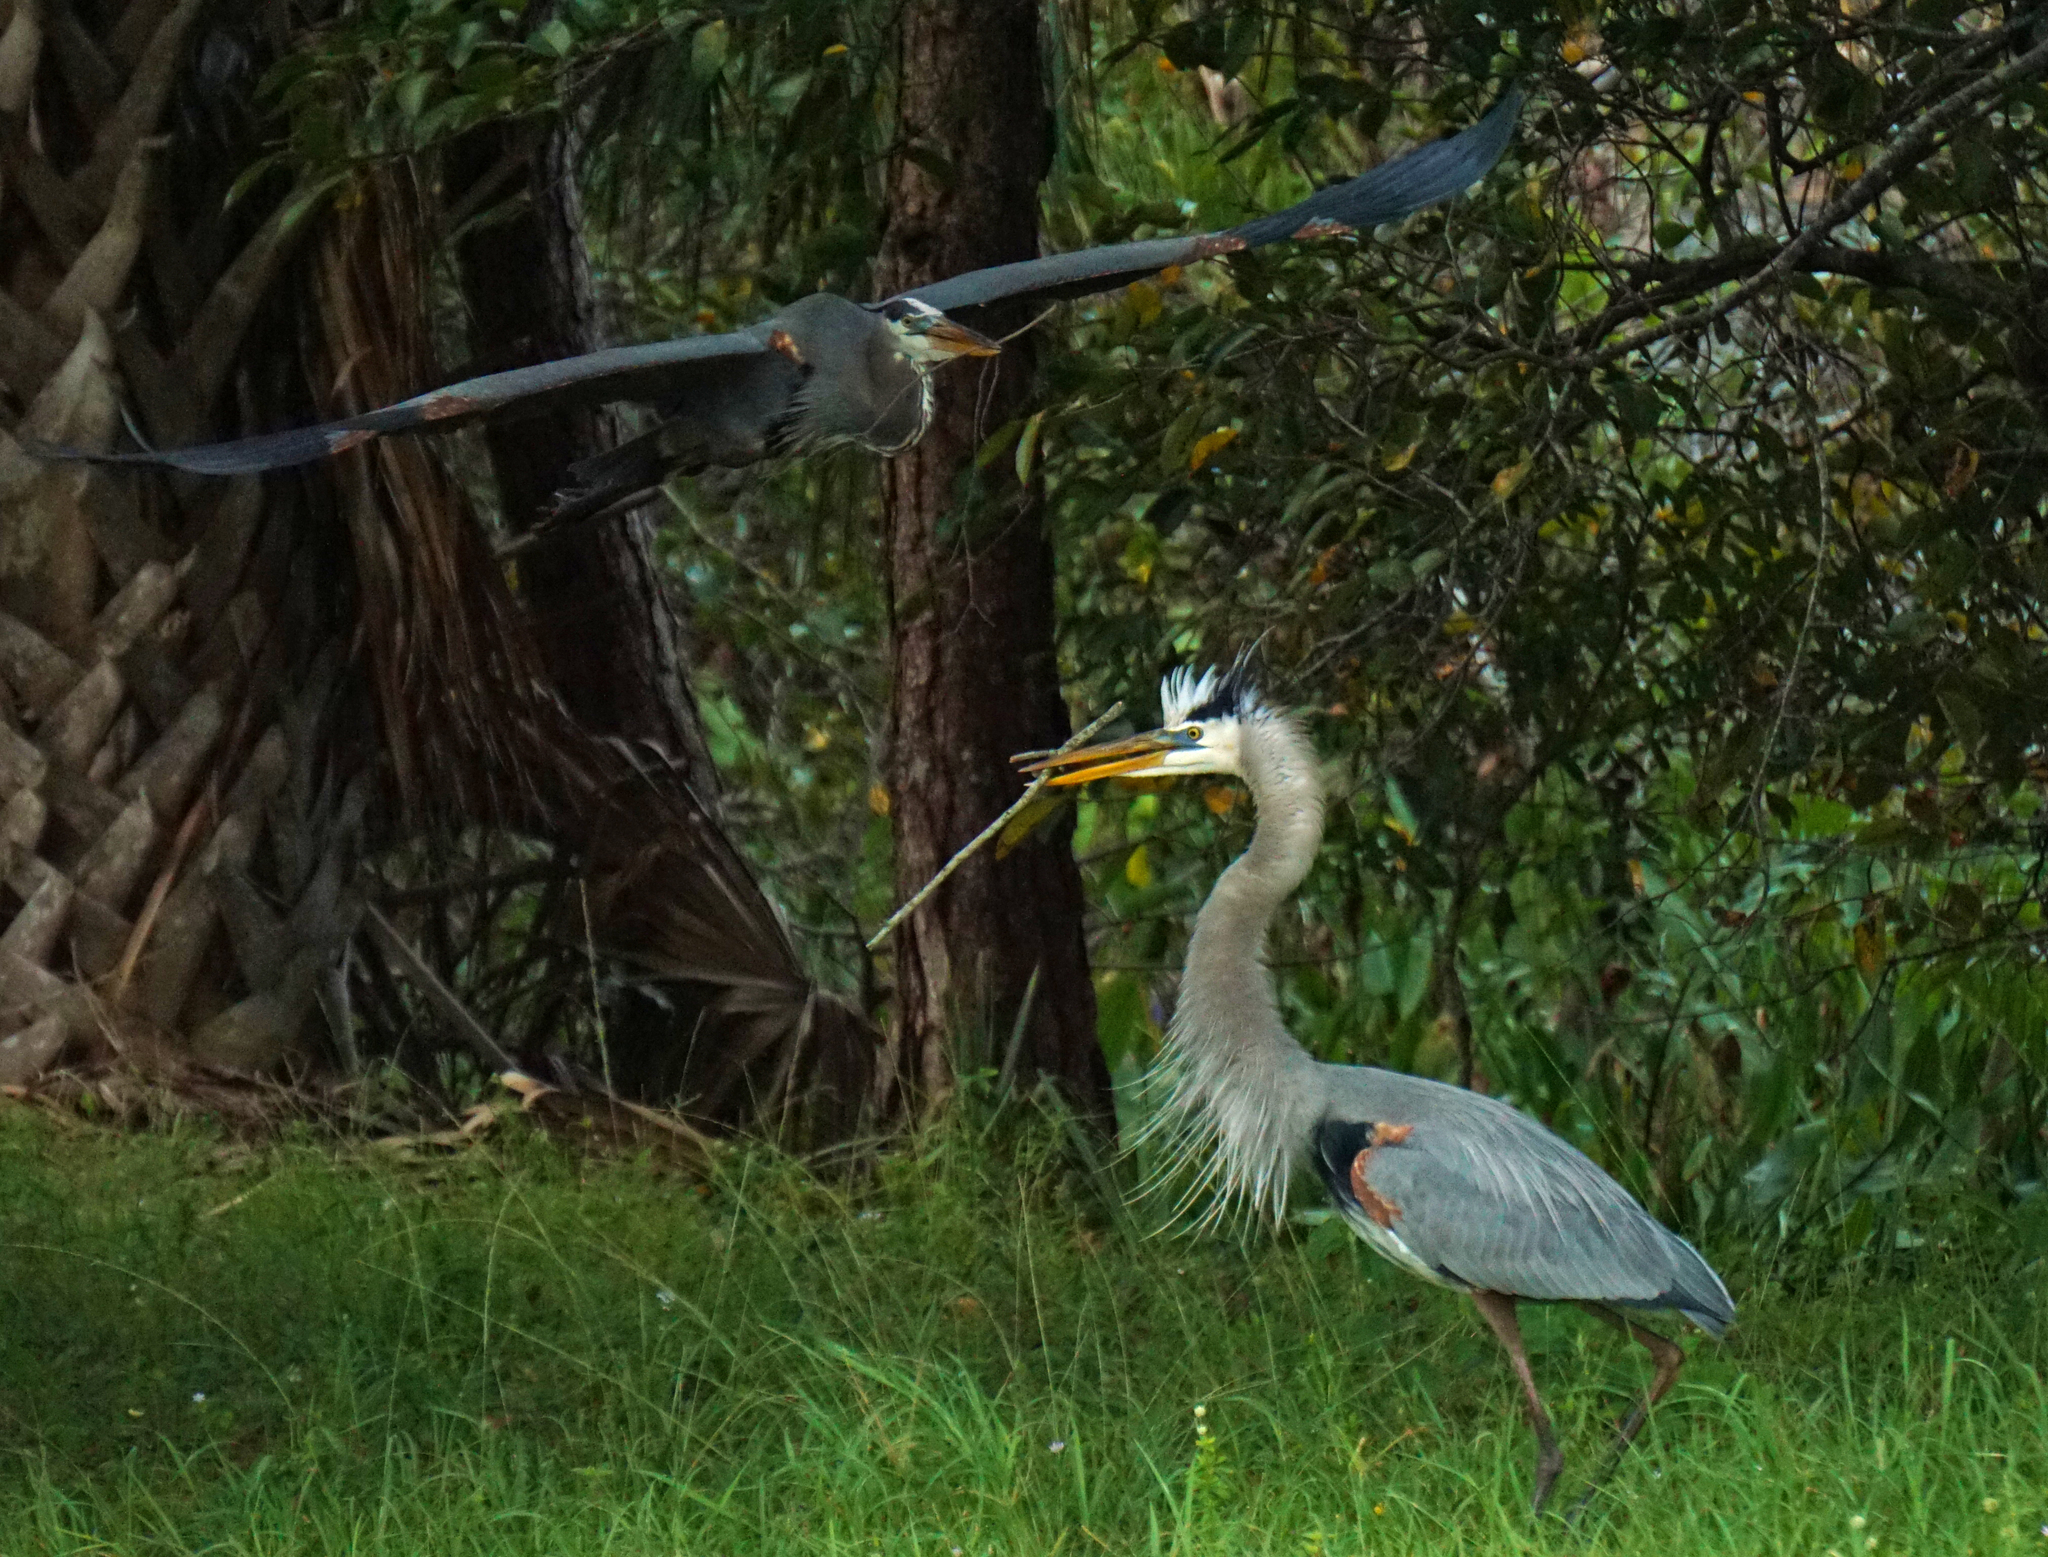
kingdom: Animalia
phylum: Chordata
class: Aves
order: Pelecaniformes
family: Ardeidae
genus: Ardea
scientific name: Ardea herodias
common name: Great blue heron
